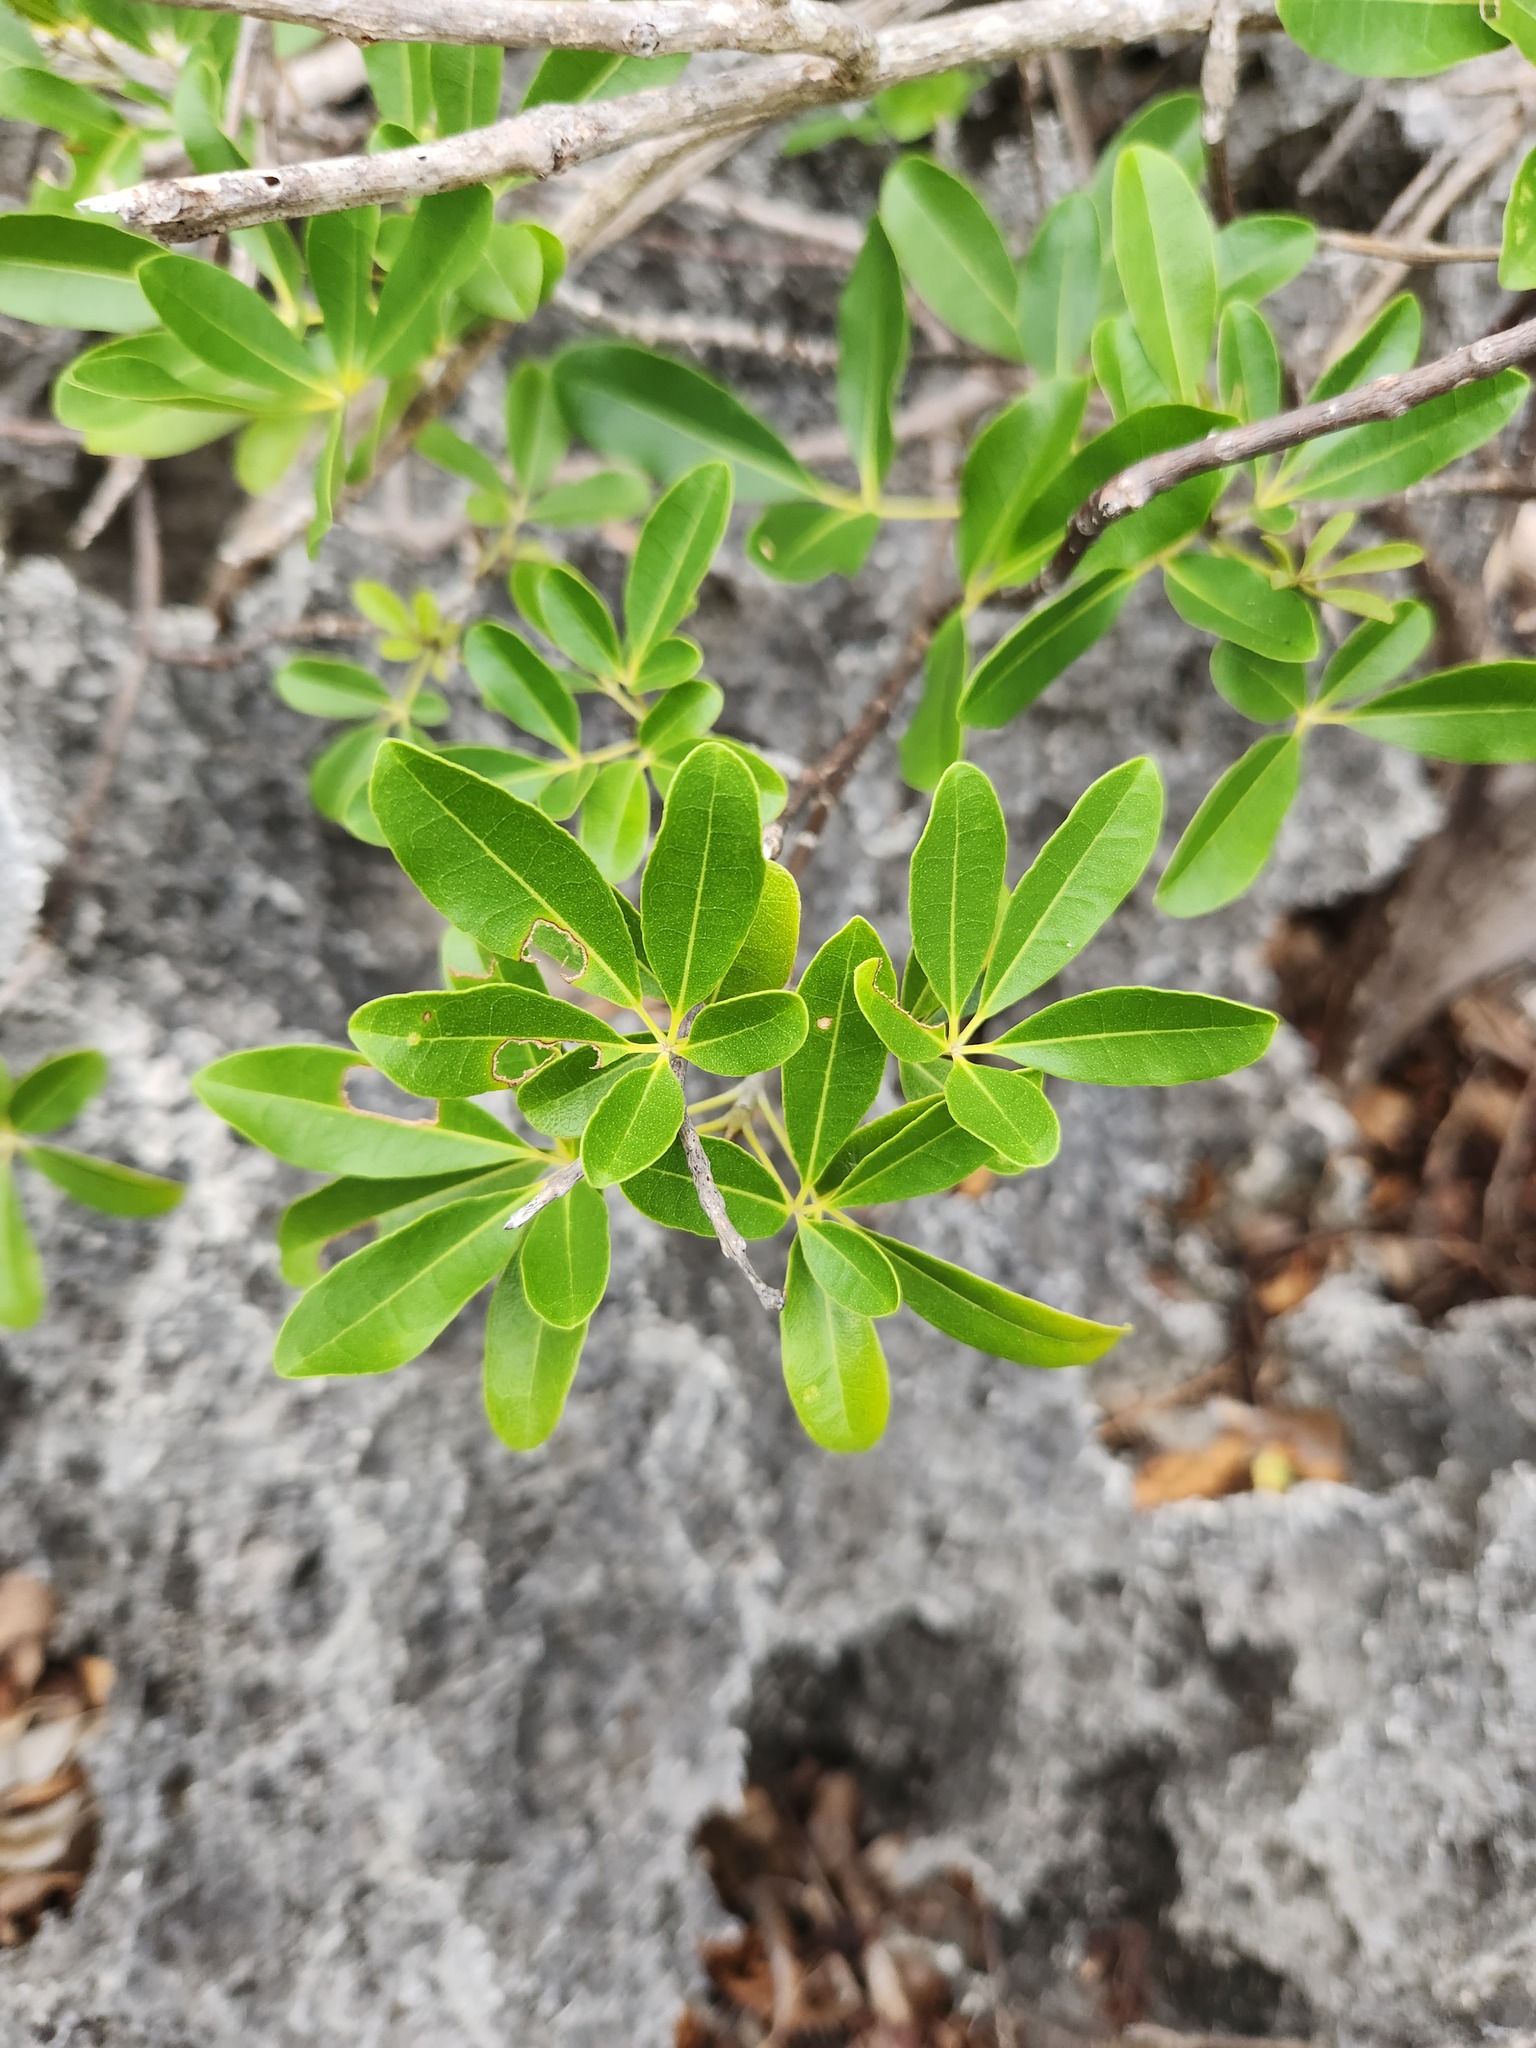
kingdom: Plantae
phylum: Tracheophyta
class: Magnoliopsida
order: Lamiales
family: Bignoniaceae
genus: Tabebuia
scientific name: Tabebuia heterophylla
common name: White cedar
